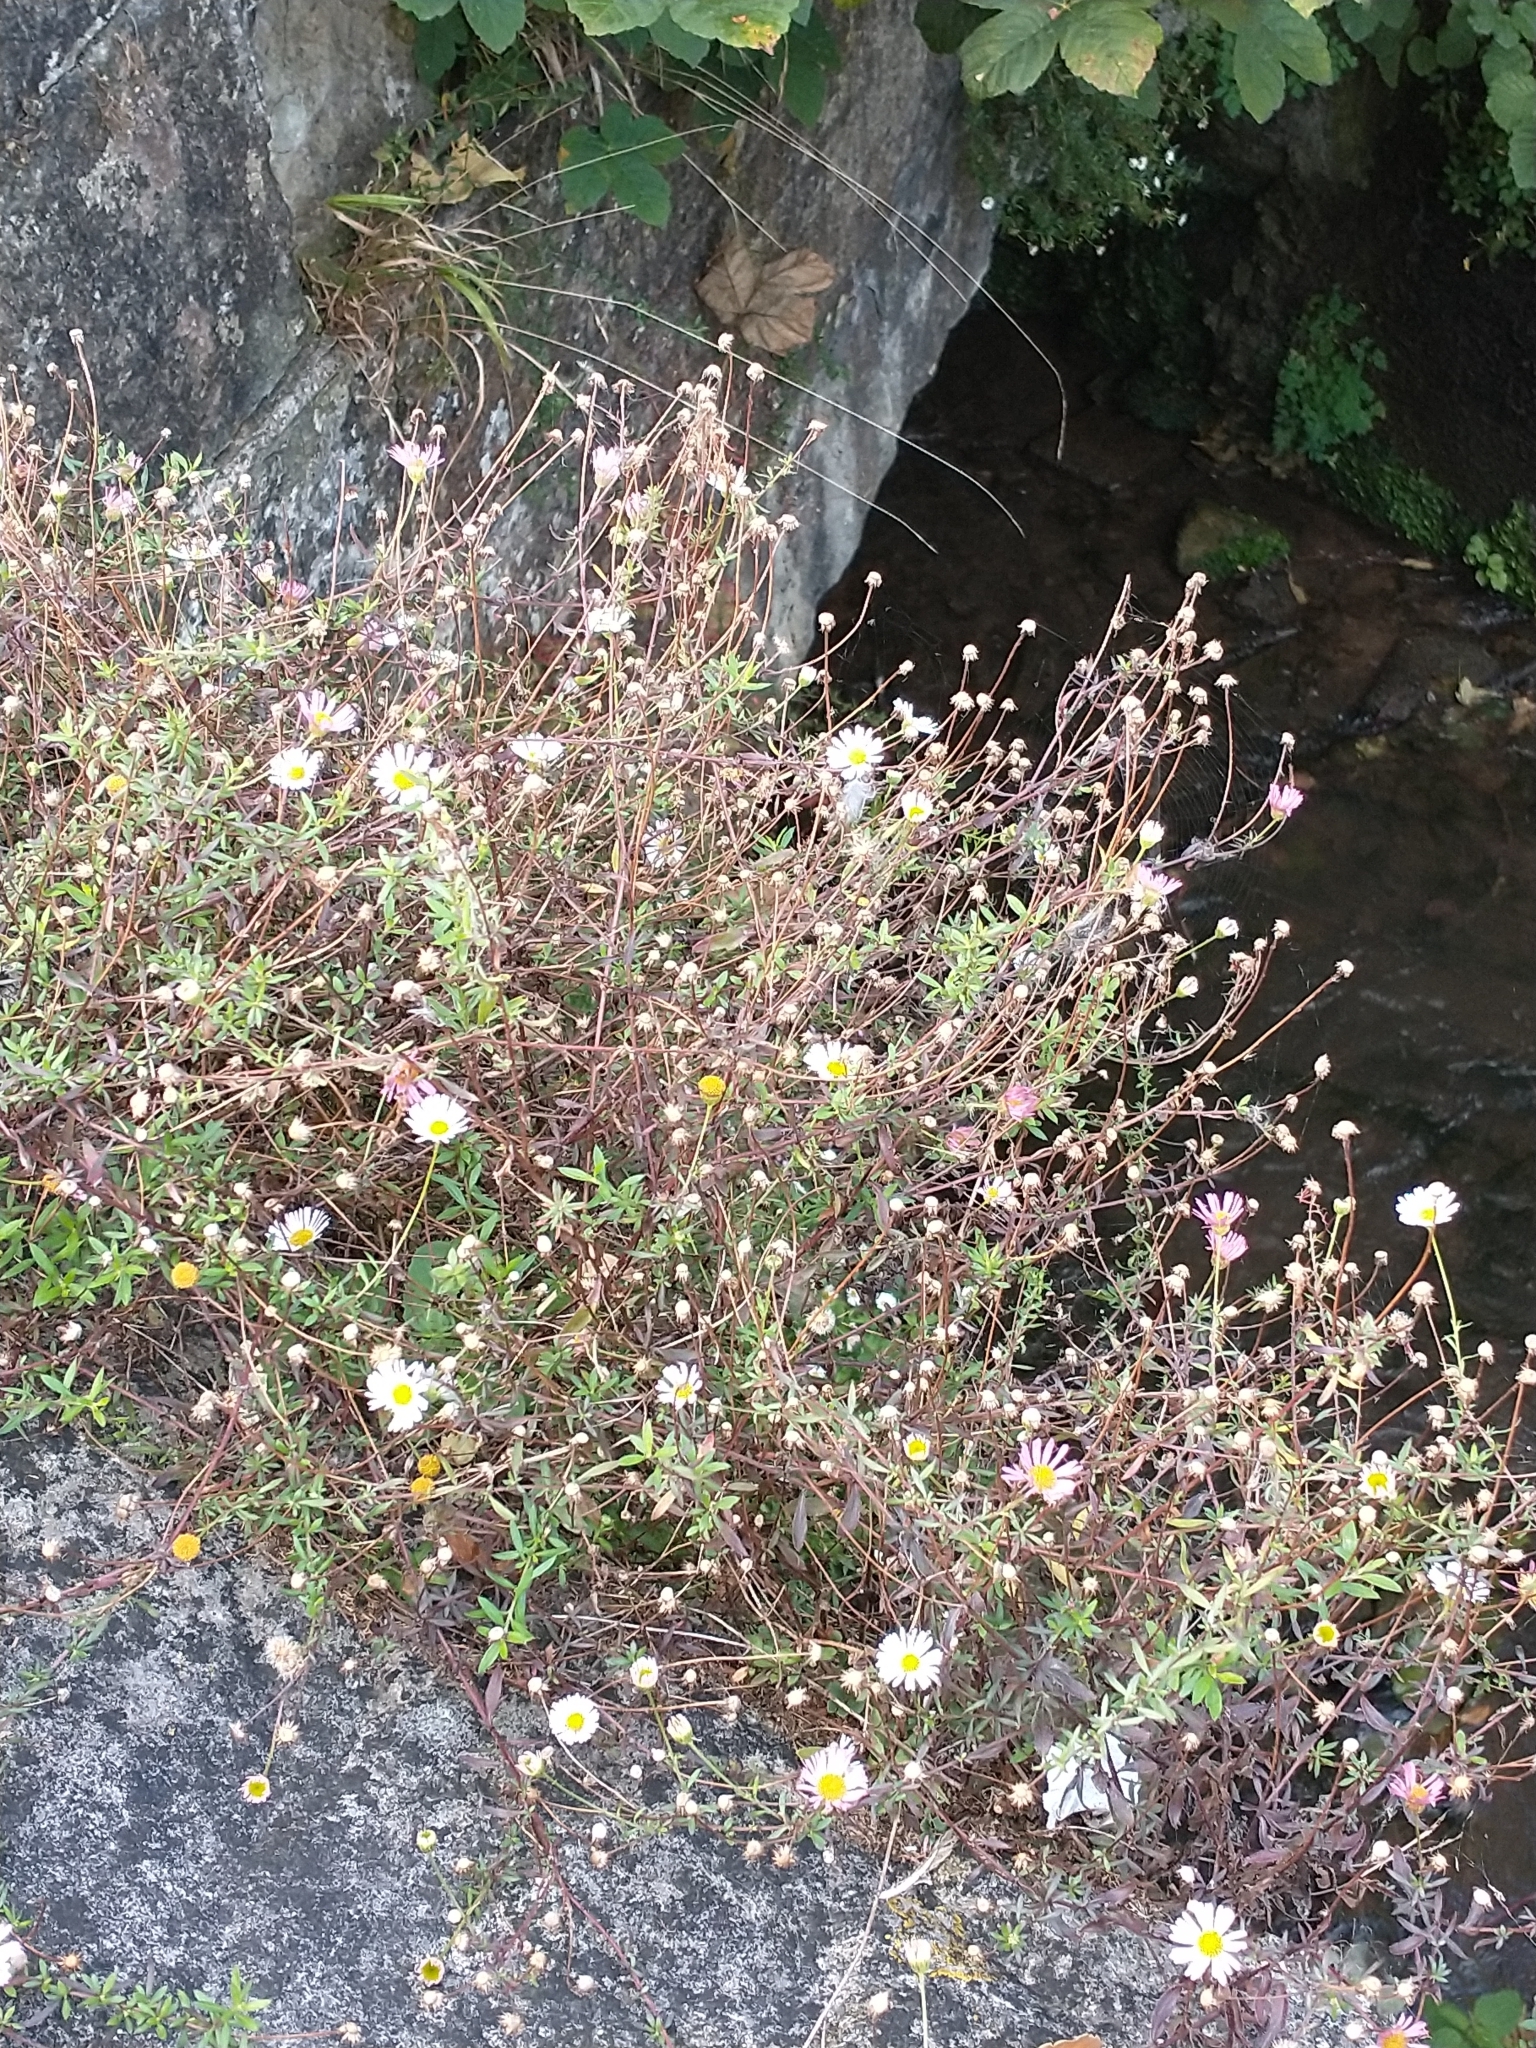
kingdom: Plantae
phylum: Tracheophyta
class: Magnoliopsida
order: Asterales
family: Asteraceae
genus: Erigeron
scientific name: Erigeron karvinskianus
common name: Mexican fleabane
